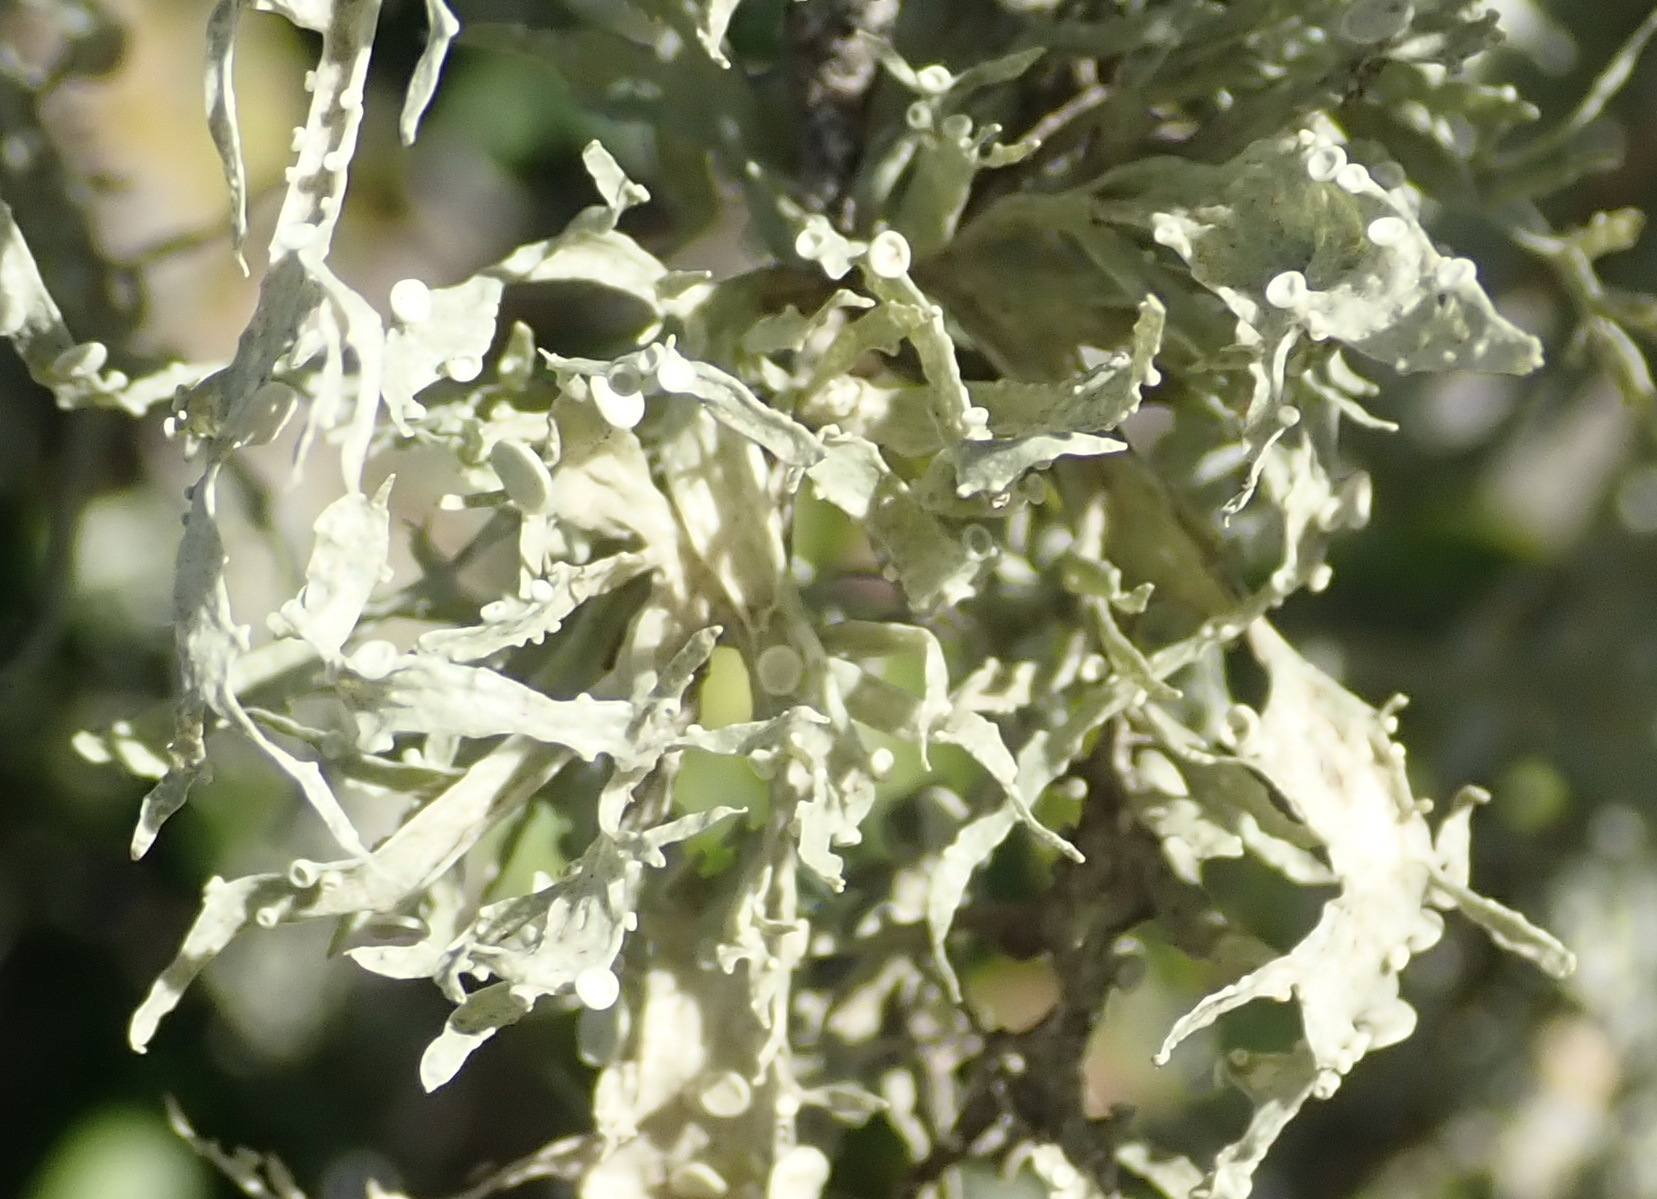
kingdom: Fungi
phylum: Ascomycota
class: Lecanoromycetes
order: Lecanorales
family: Ramalinaceae
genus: Ramalina
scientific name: Ramalina celastri
